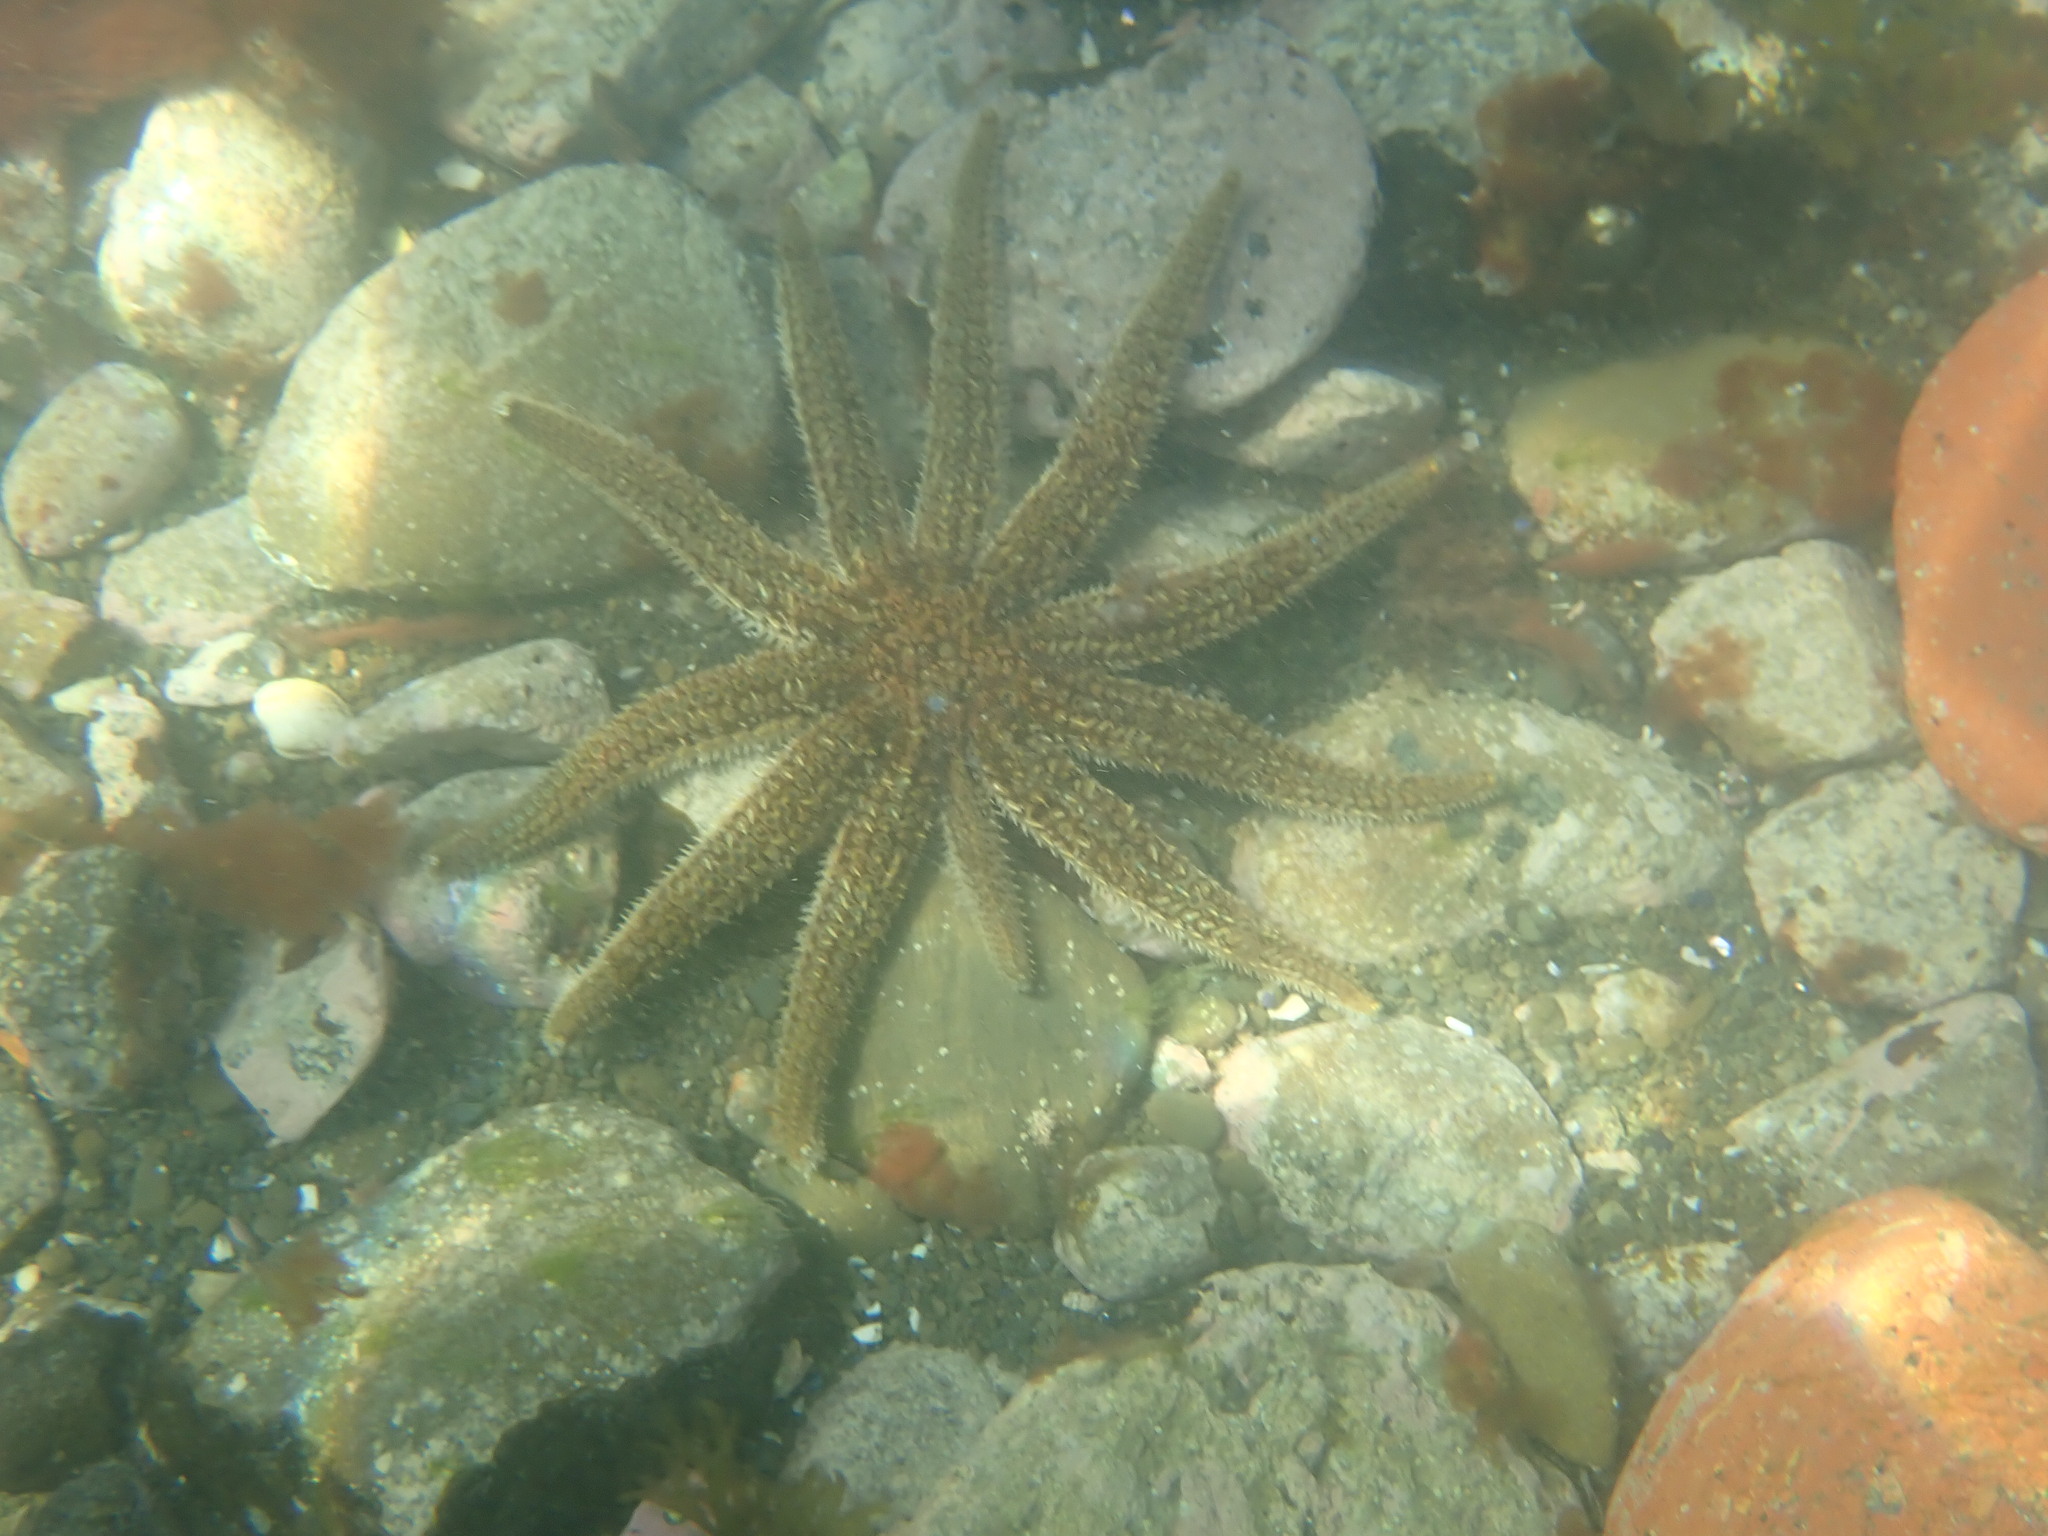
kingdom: Animalia
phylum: Echinodermata
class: Asteroidea
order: Forcipulatida
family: Asteriidae
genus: Coscinasterias
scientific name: Coscinasterias muricata
